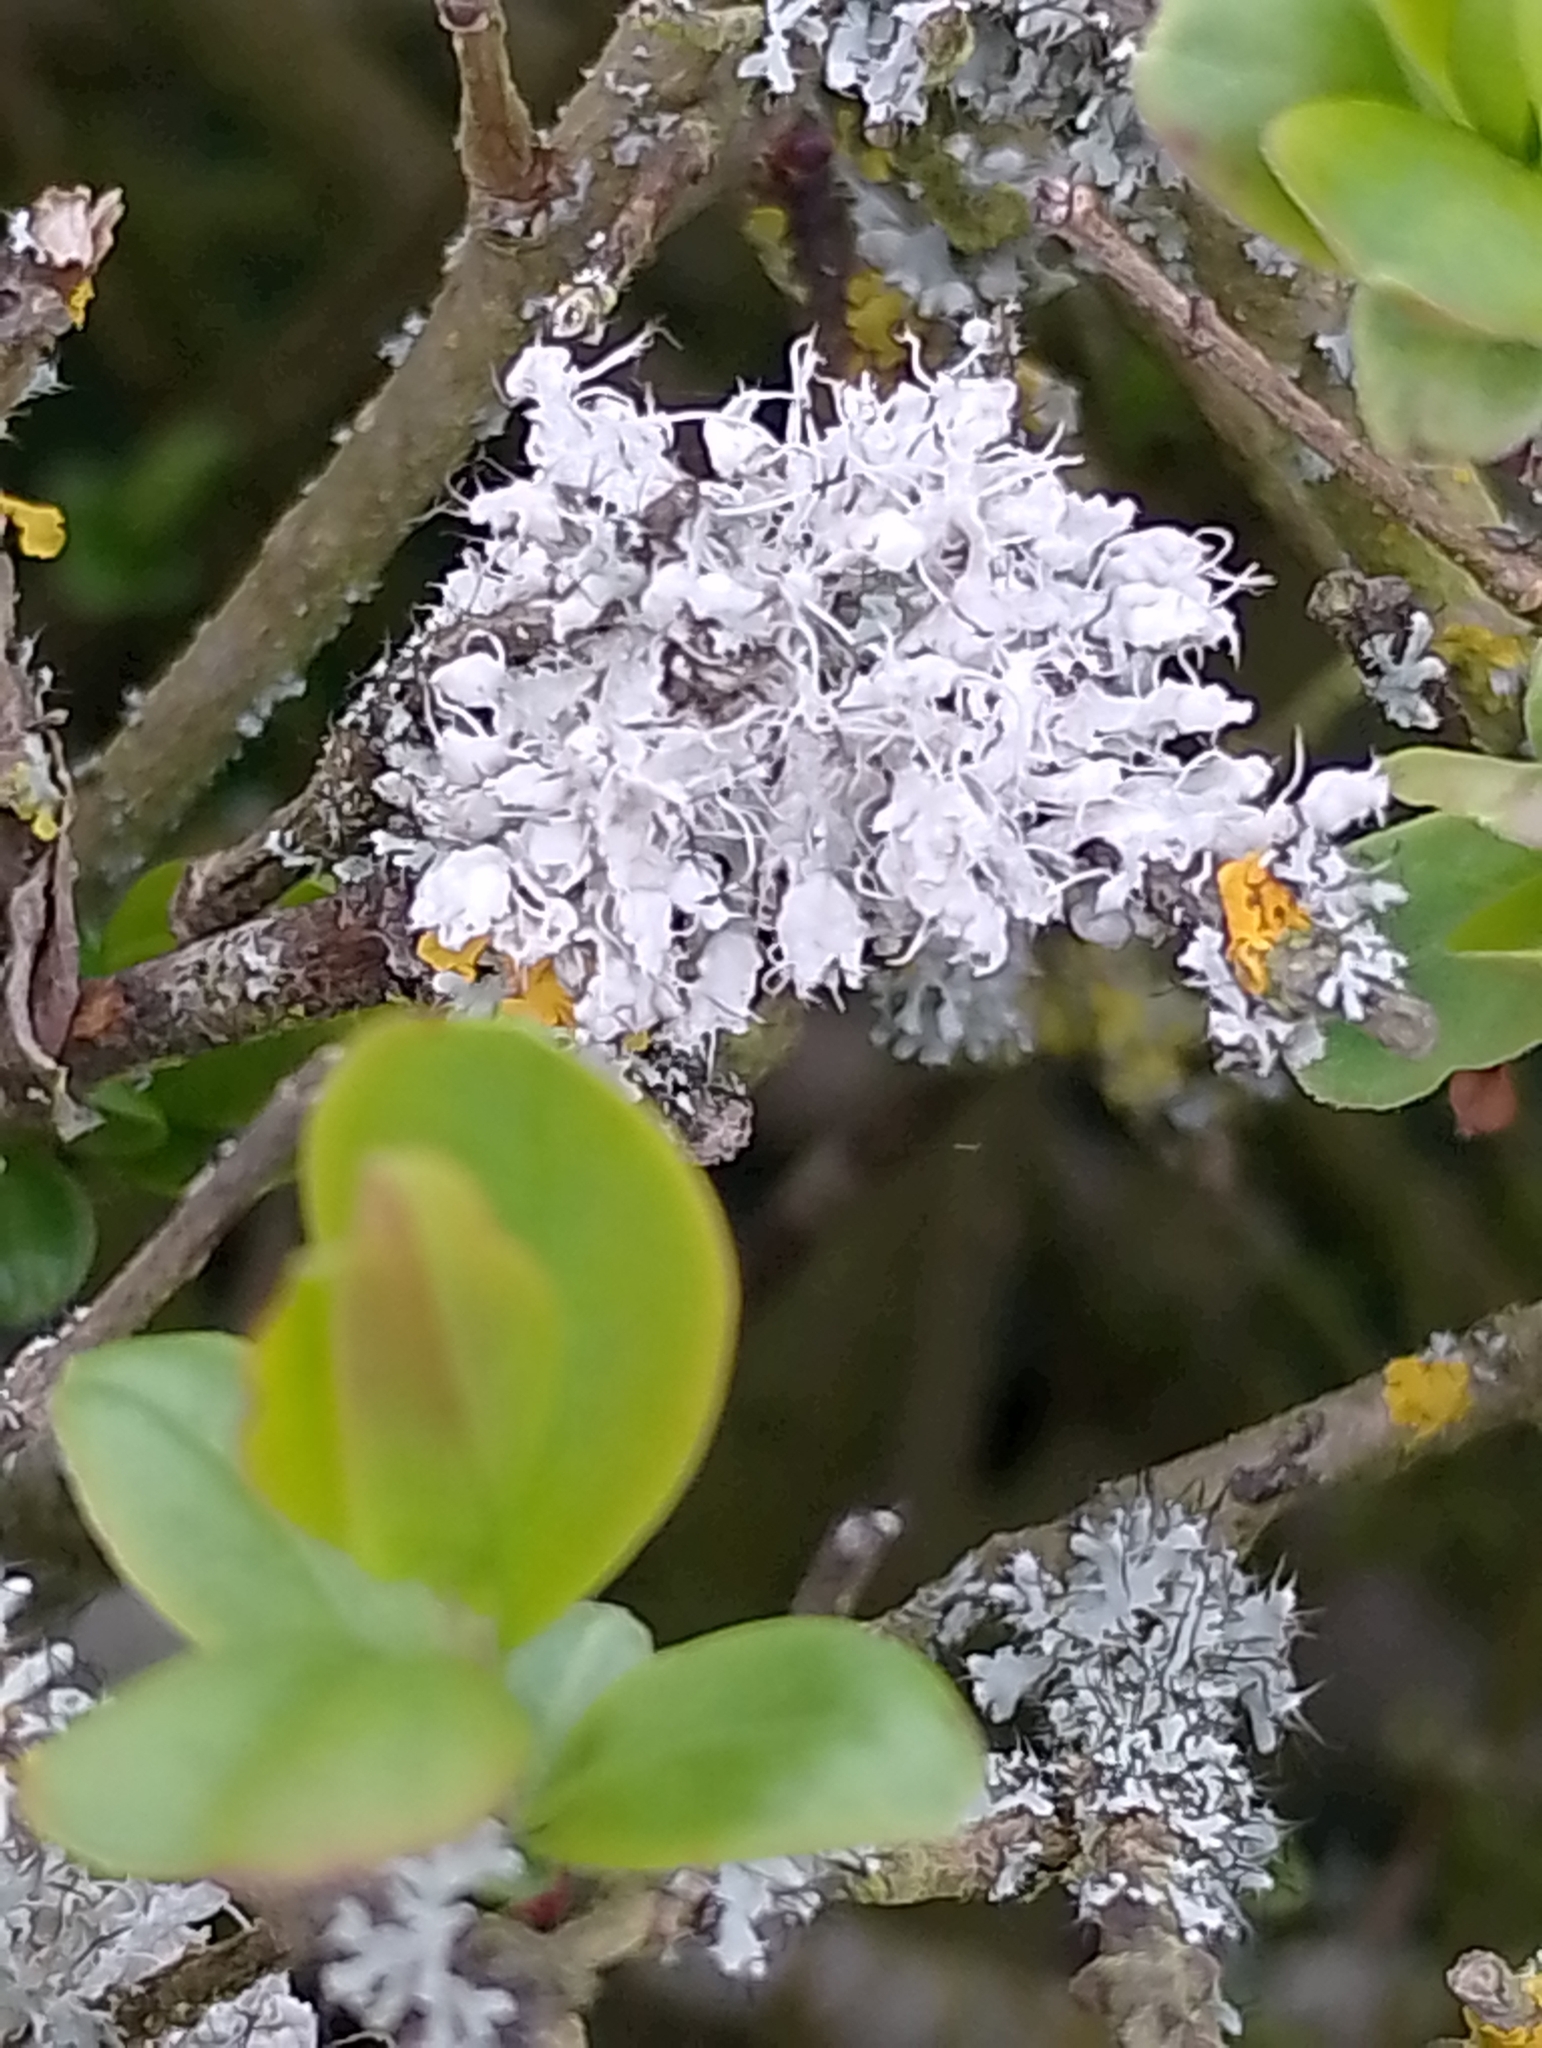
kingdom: Fungi
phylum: Ascomycota
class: Lecanoromycetes
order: Caliciales
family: Physciaceae
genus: Physcia
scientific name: Physcia adscendens
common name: Hooded rosette lichen
